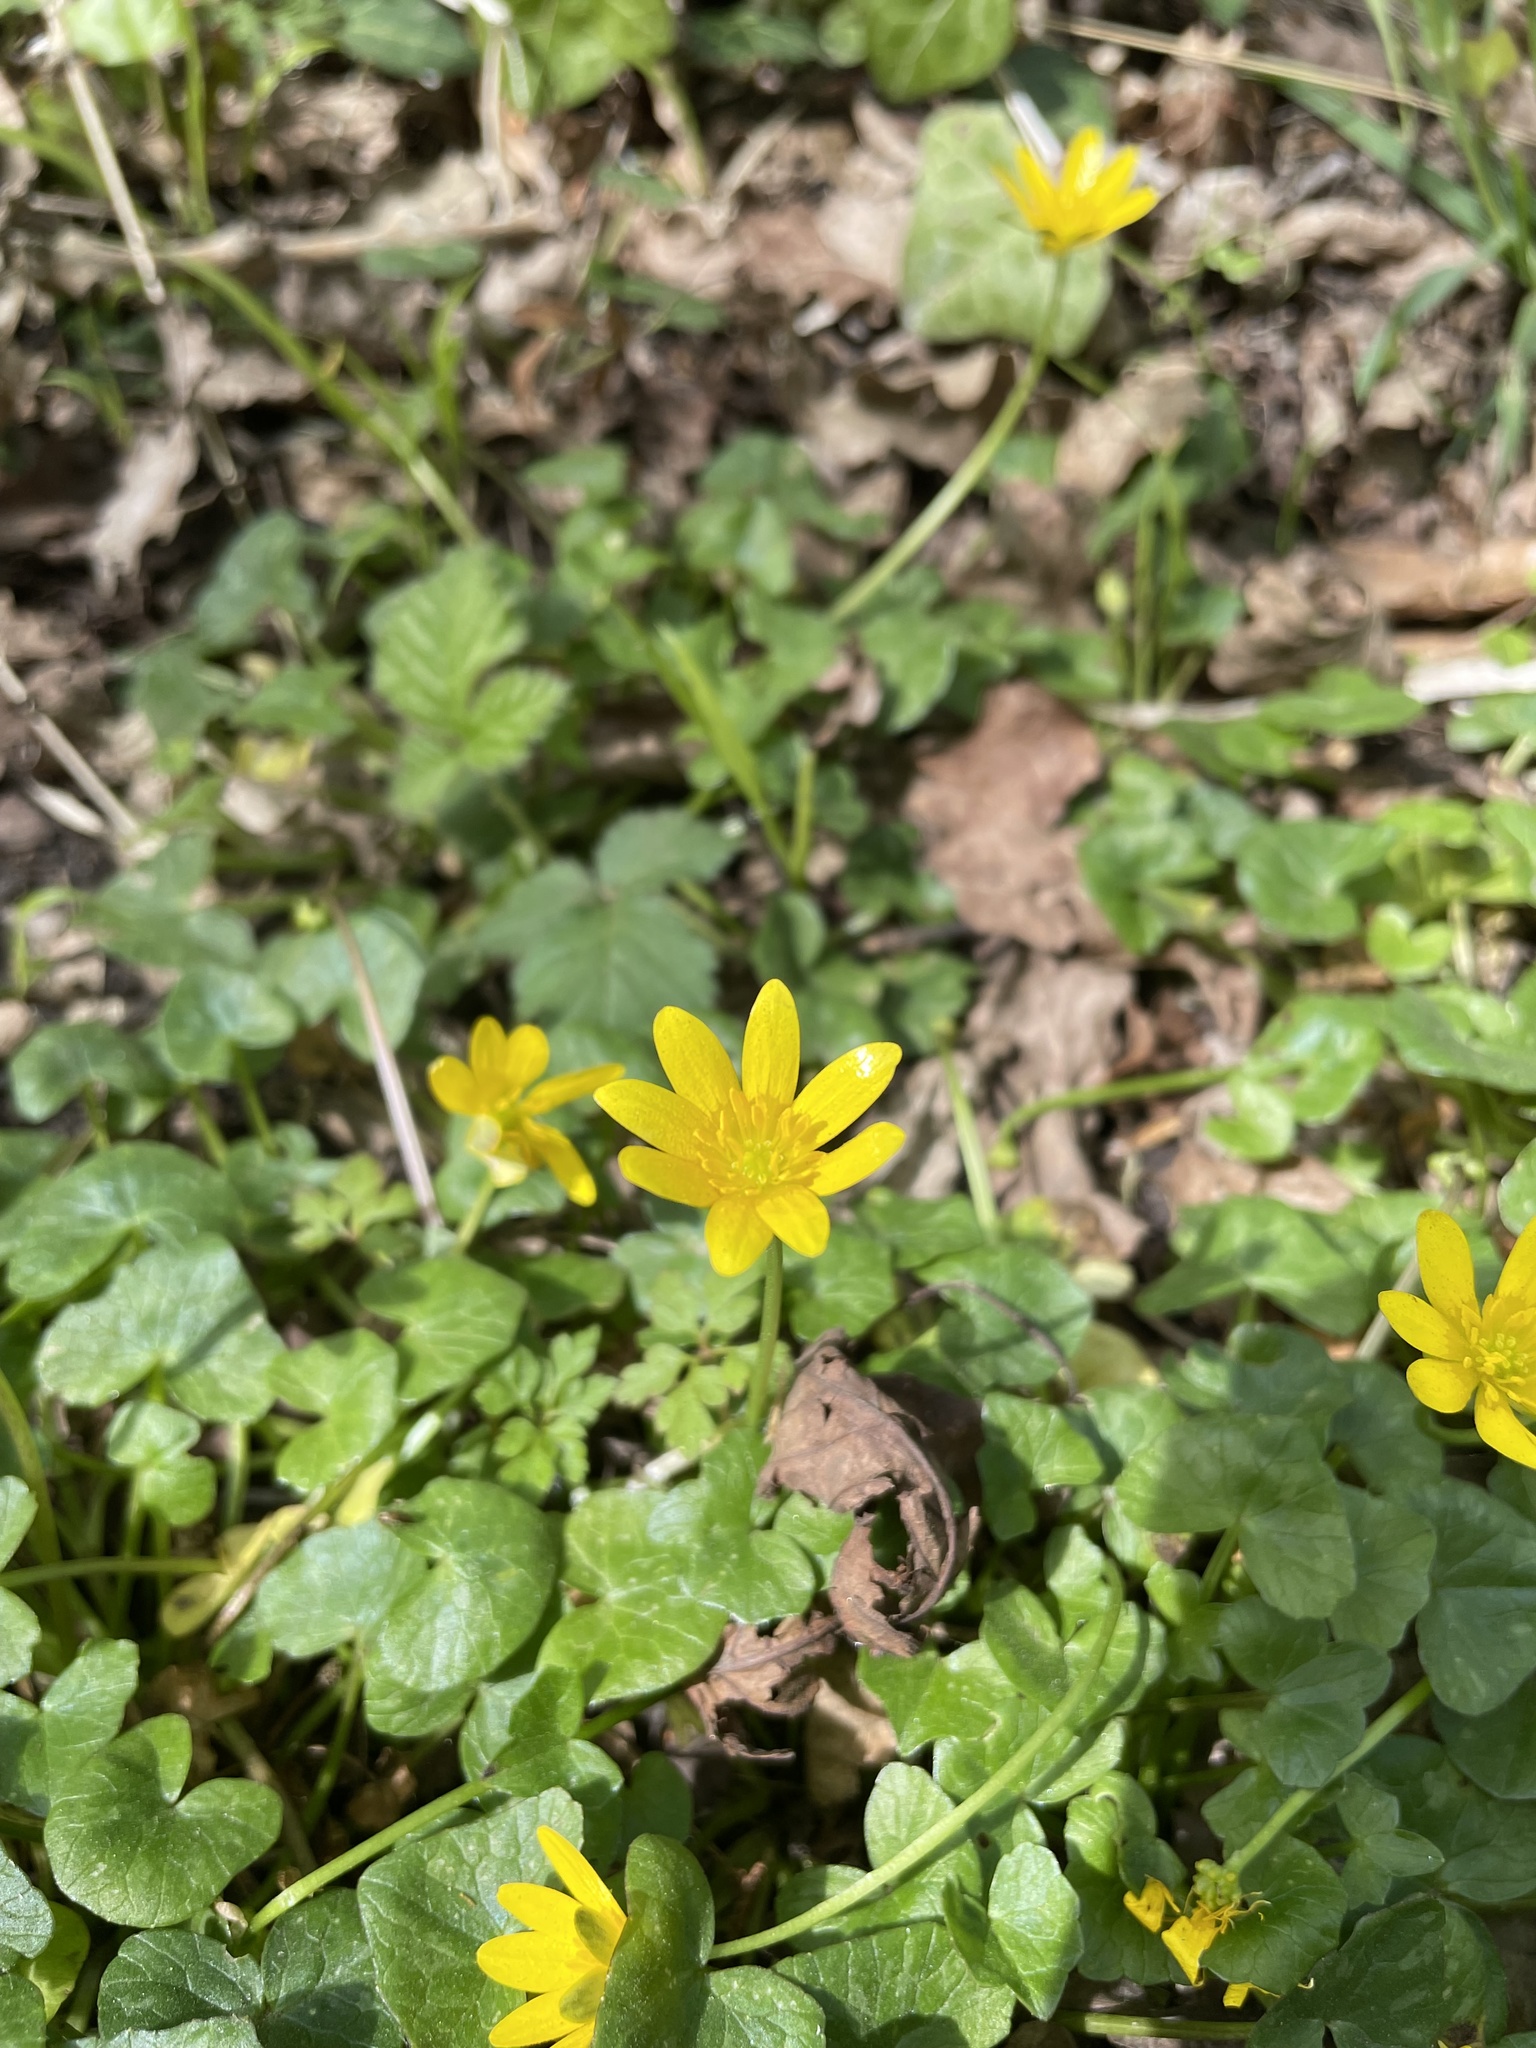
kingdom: Plantae
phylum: Tracheophyta
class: Magnoliopsida
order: Ranunculales
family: Ranunculaceae
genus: Ficaria
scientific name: Ficaria verna
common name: Lesser celandine
